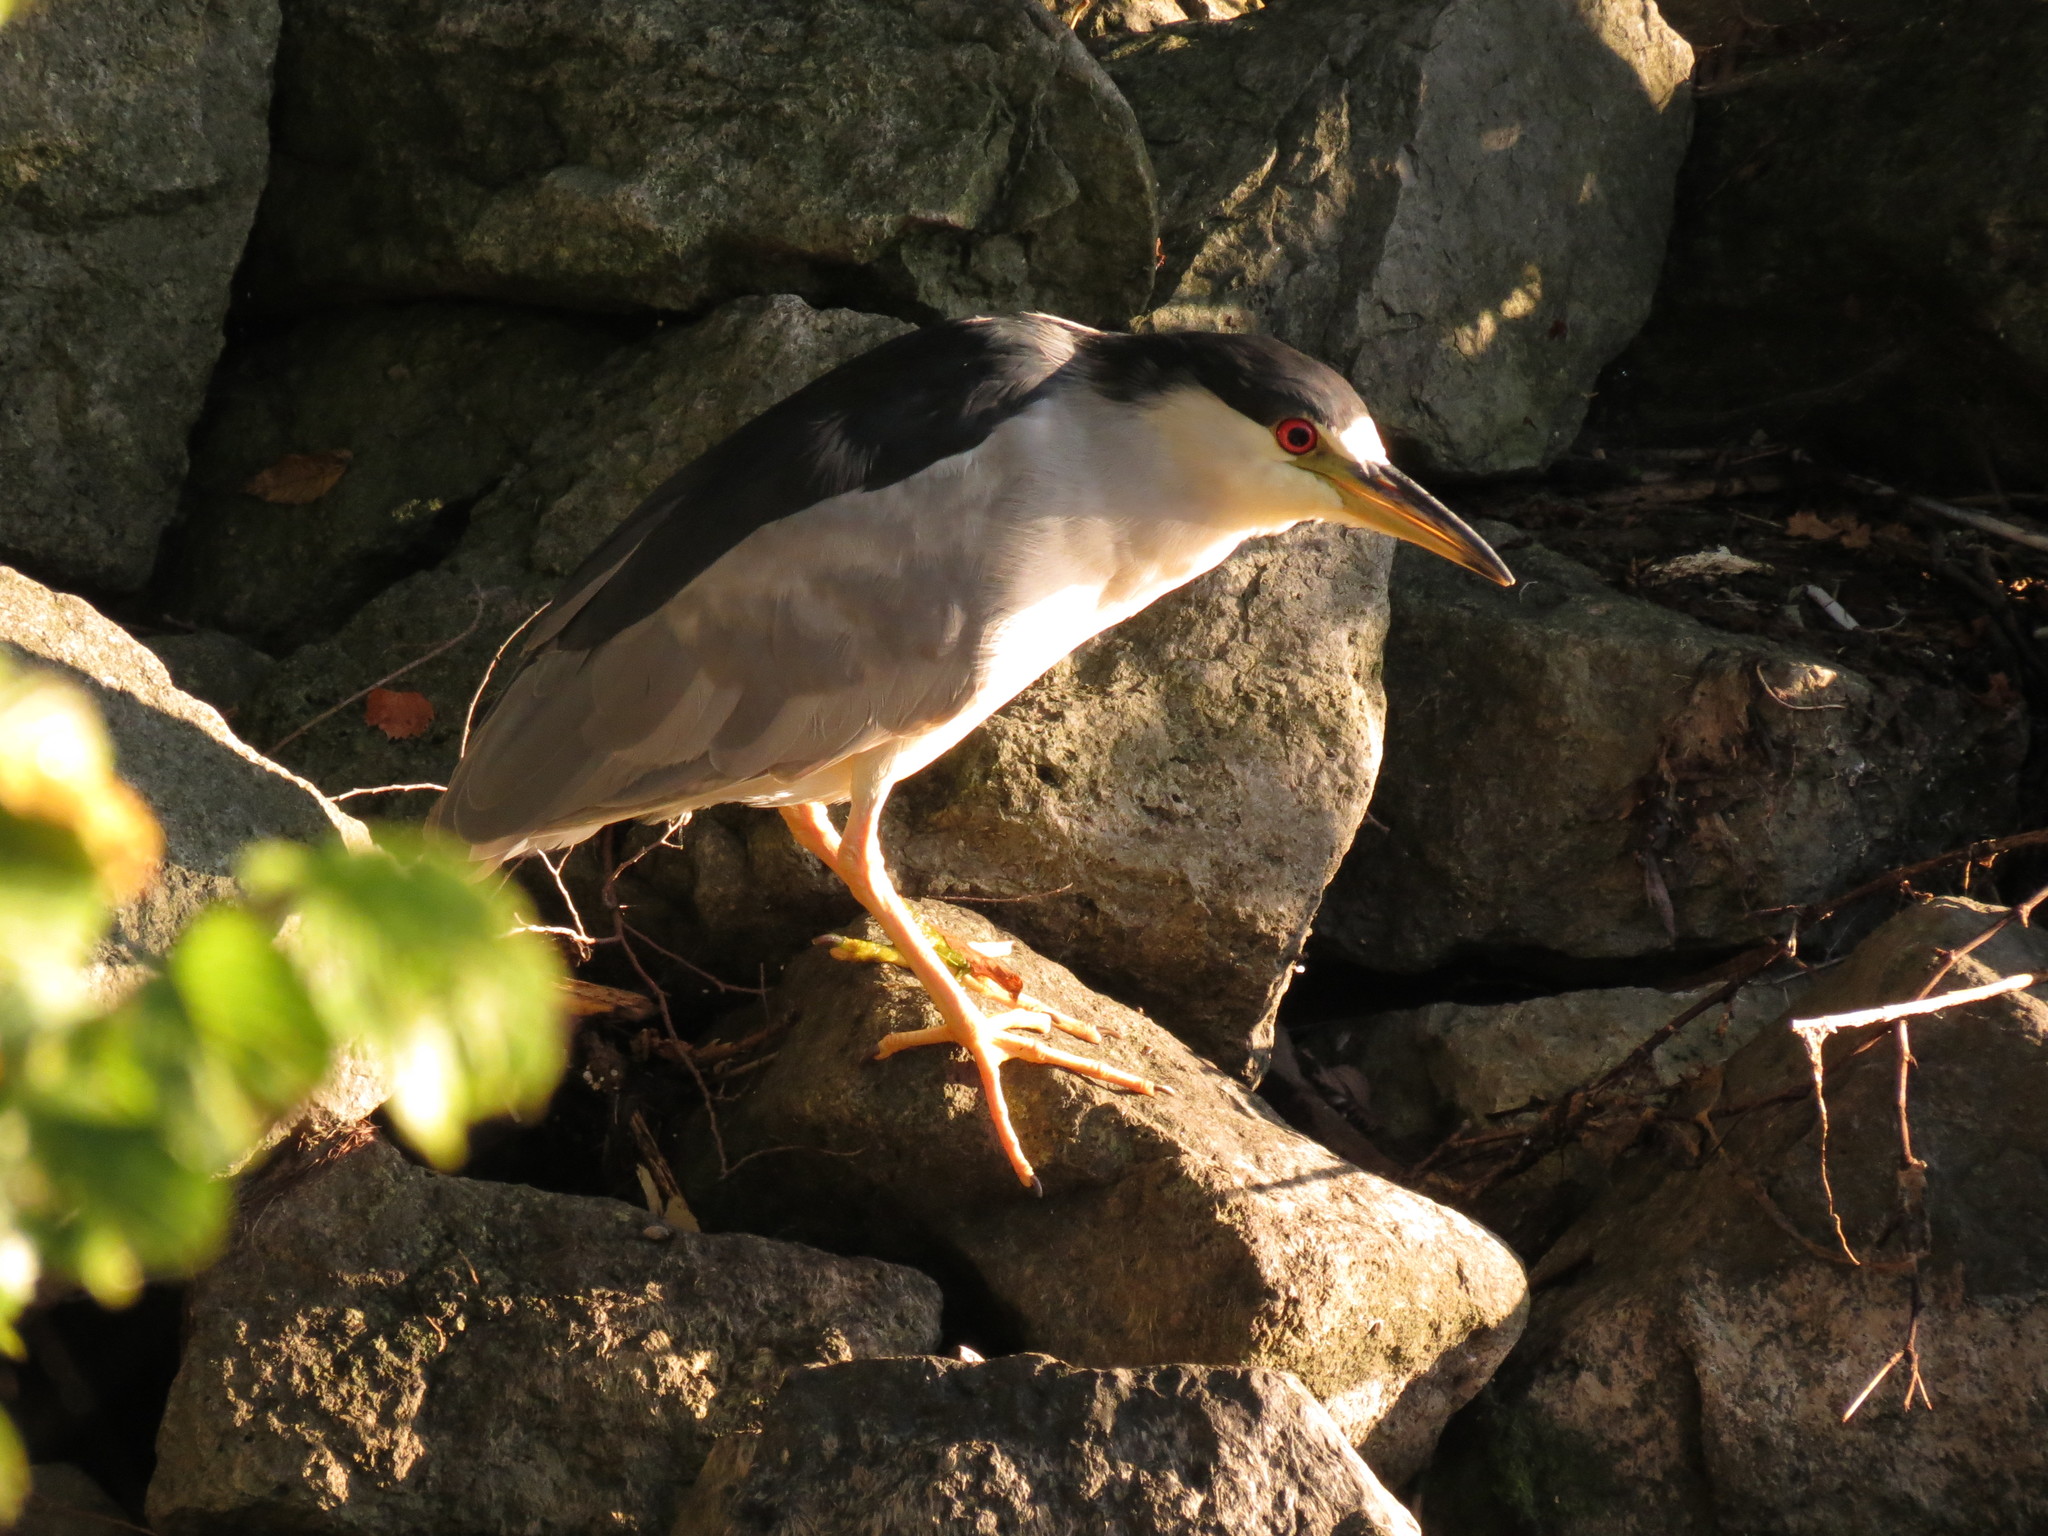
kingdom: Animalia
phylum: Chordata
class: Aves
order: Pelecaniformes
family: Ardeidae
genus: Nycticorax
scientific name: Nycticorax nycticorax
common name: Black-crowned night heron
